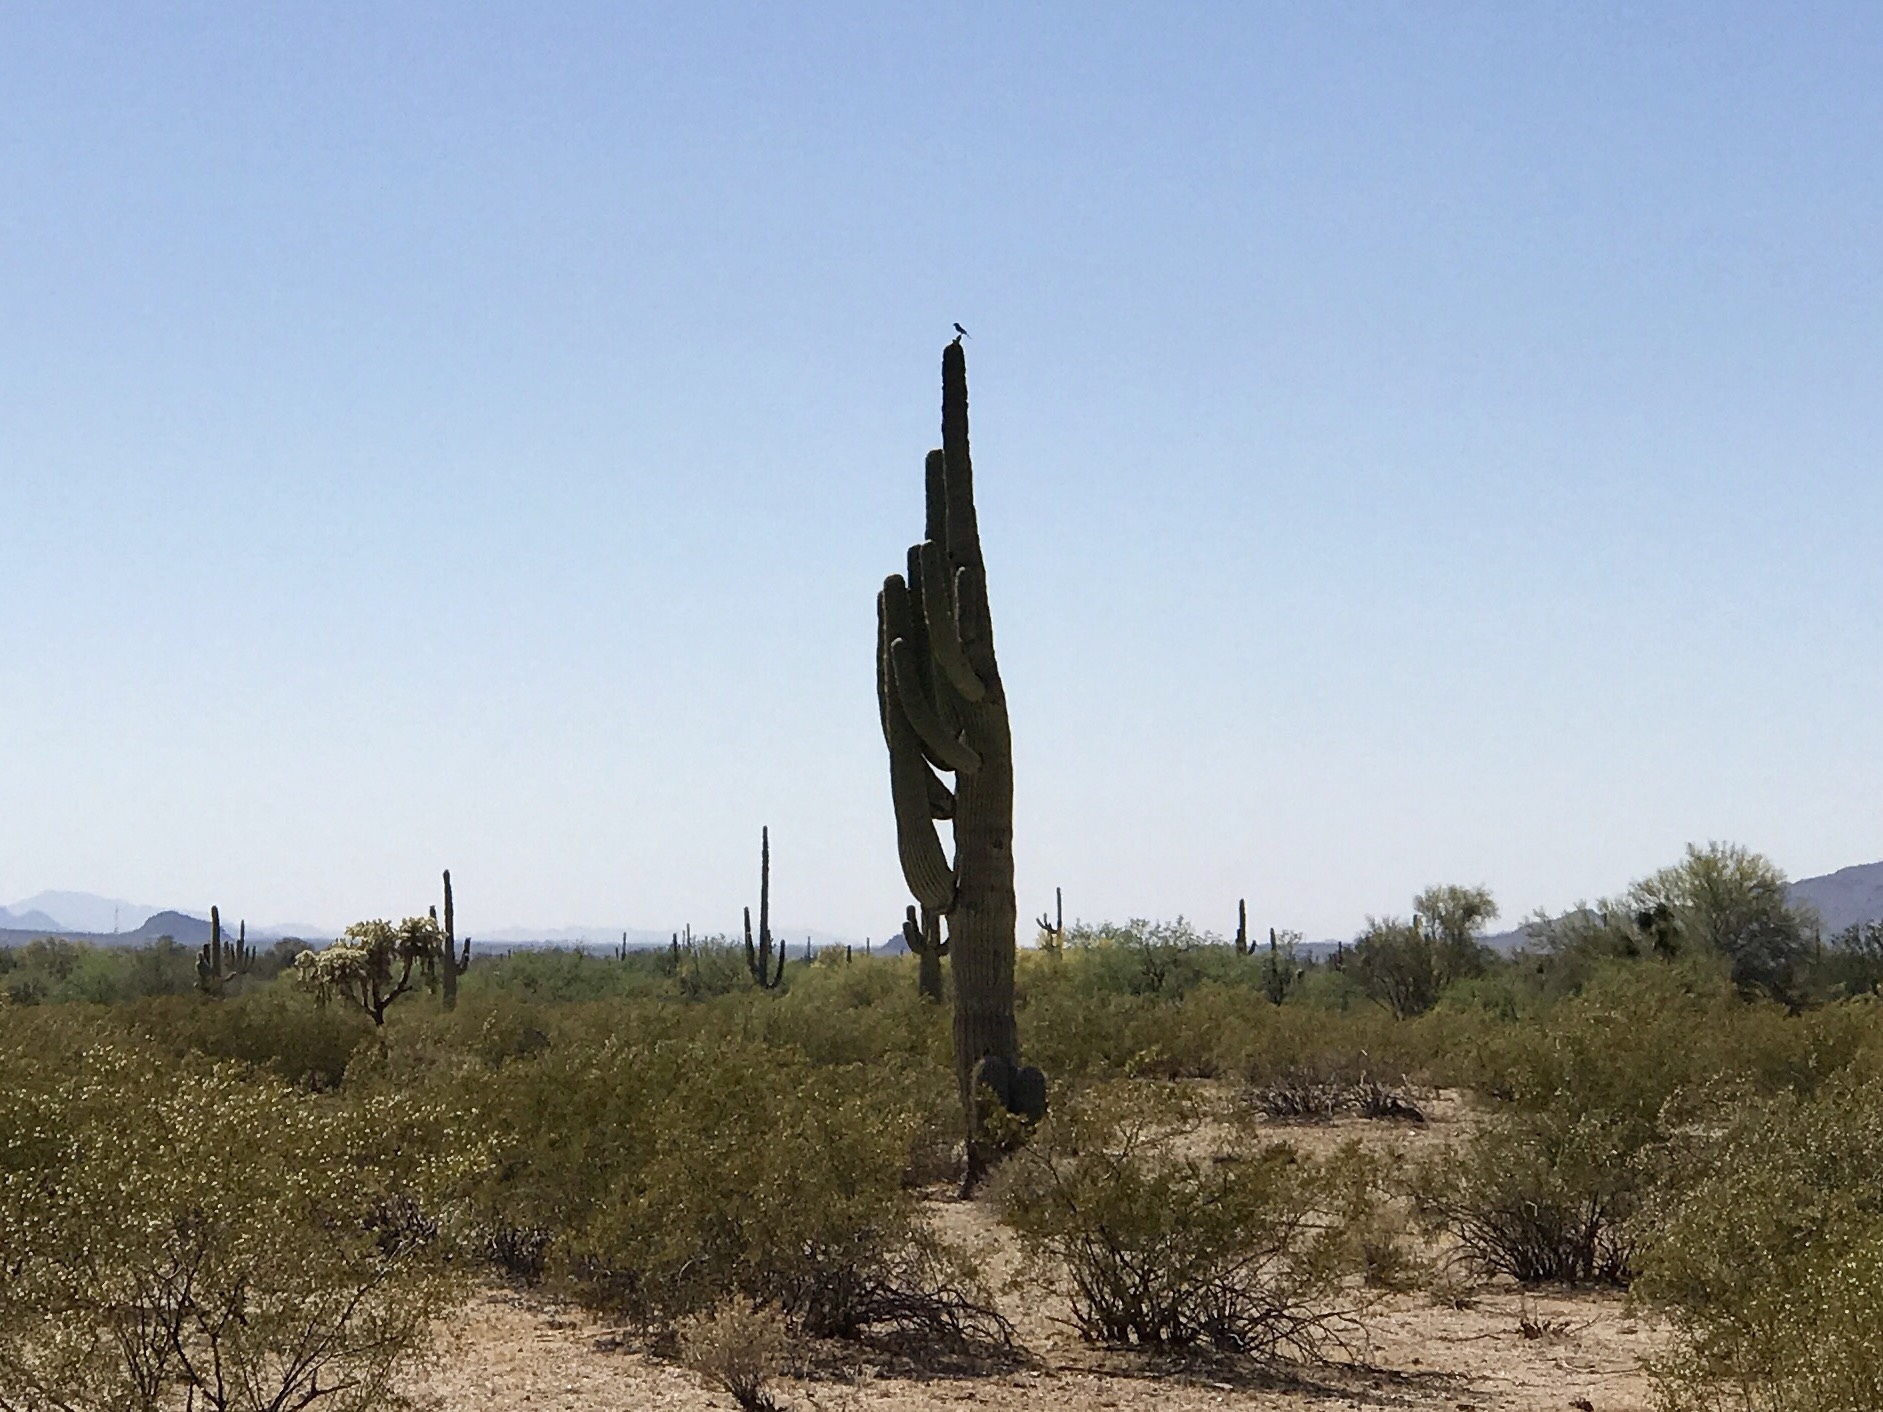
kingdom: Plantae
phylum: Tracheophyta
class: Magnoliopsida
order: Caryophyllales
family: Cactaceae
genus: Carnegiea
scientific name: Carnegiea gigantea
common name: Saguaro
